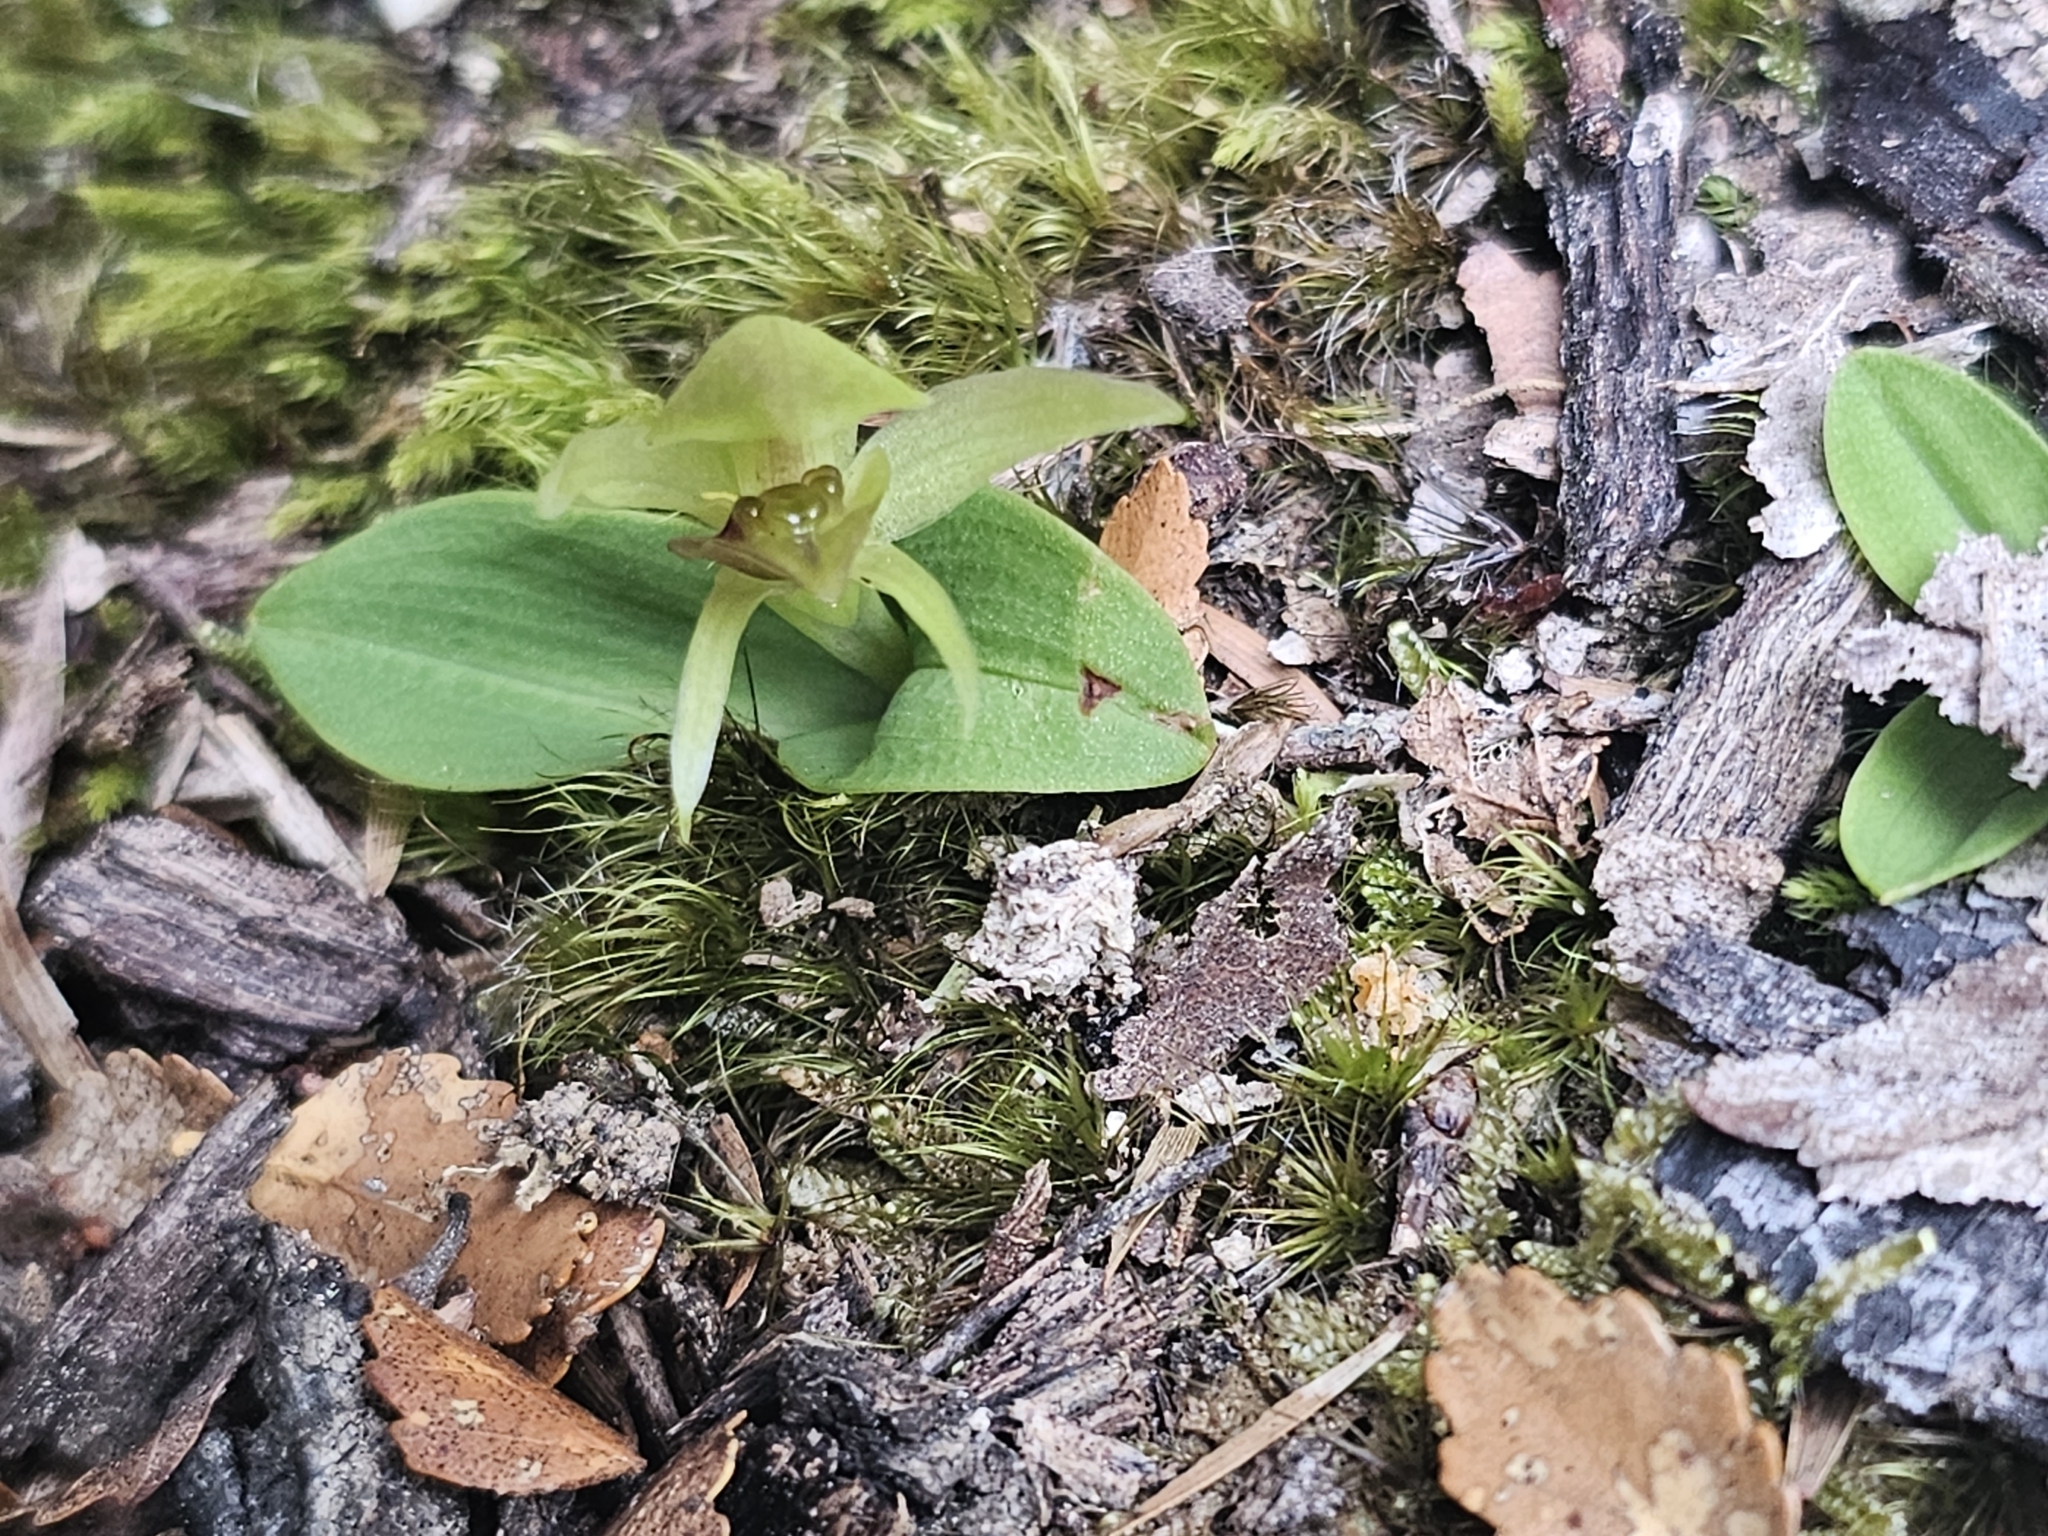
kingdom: Plantae
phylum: Tracheophyta
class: Liliopsida
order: Asparagales
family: Orchidaceae
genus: Chiloglottis
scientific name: Chiloglottis cornuta
